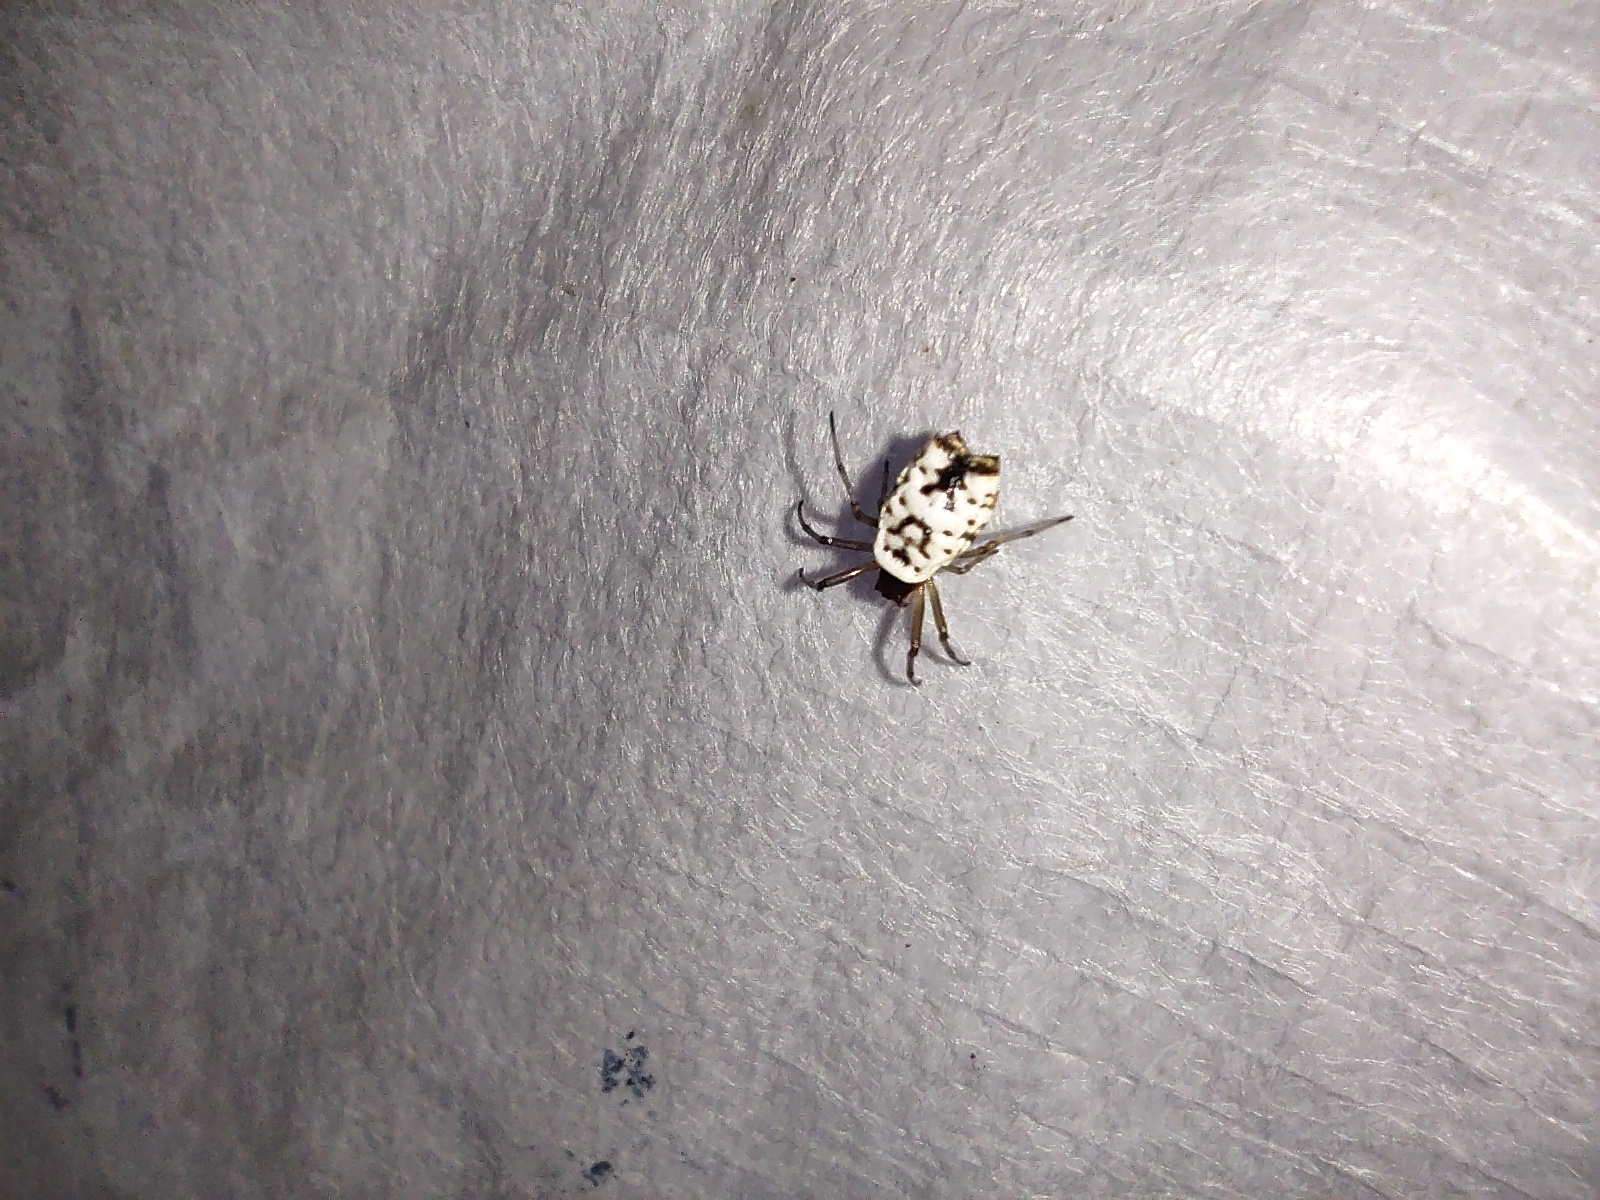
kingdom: Animalia
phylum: Arthropoda
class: Arachnida
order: Araneae
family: Araneidae
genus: Micrathena
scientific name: Micrathena mitrata
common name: Orb weavers
